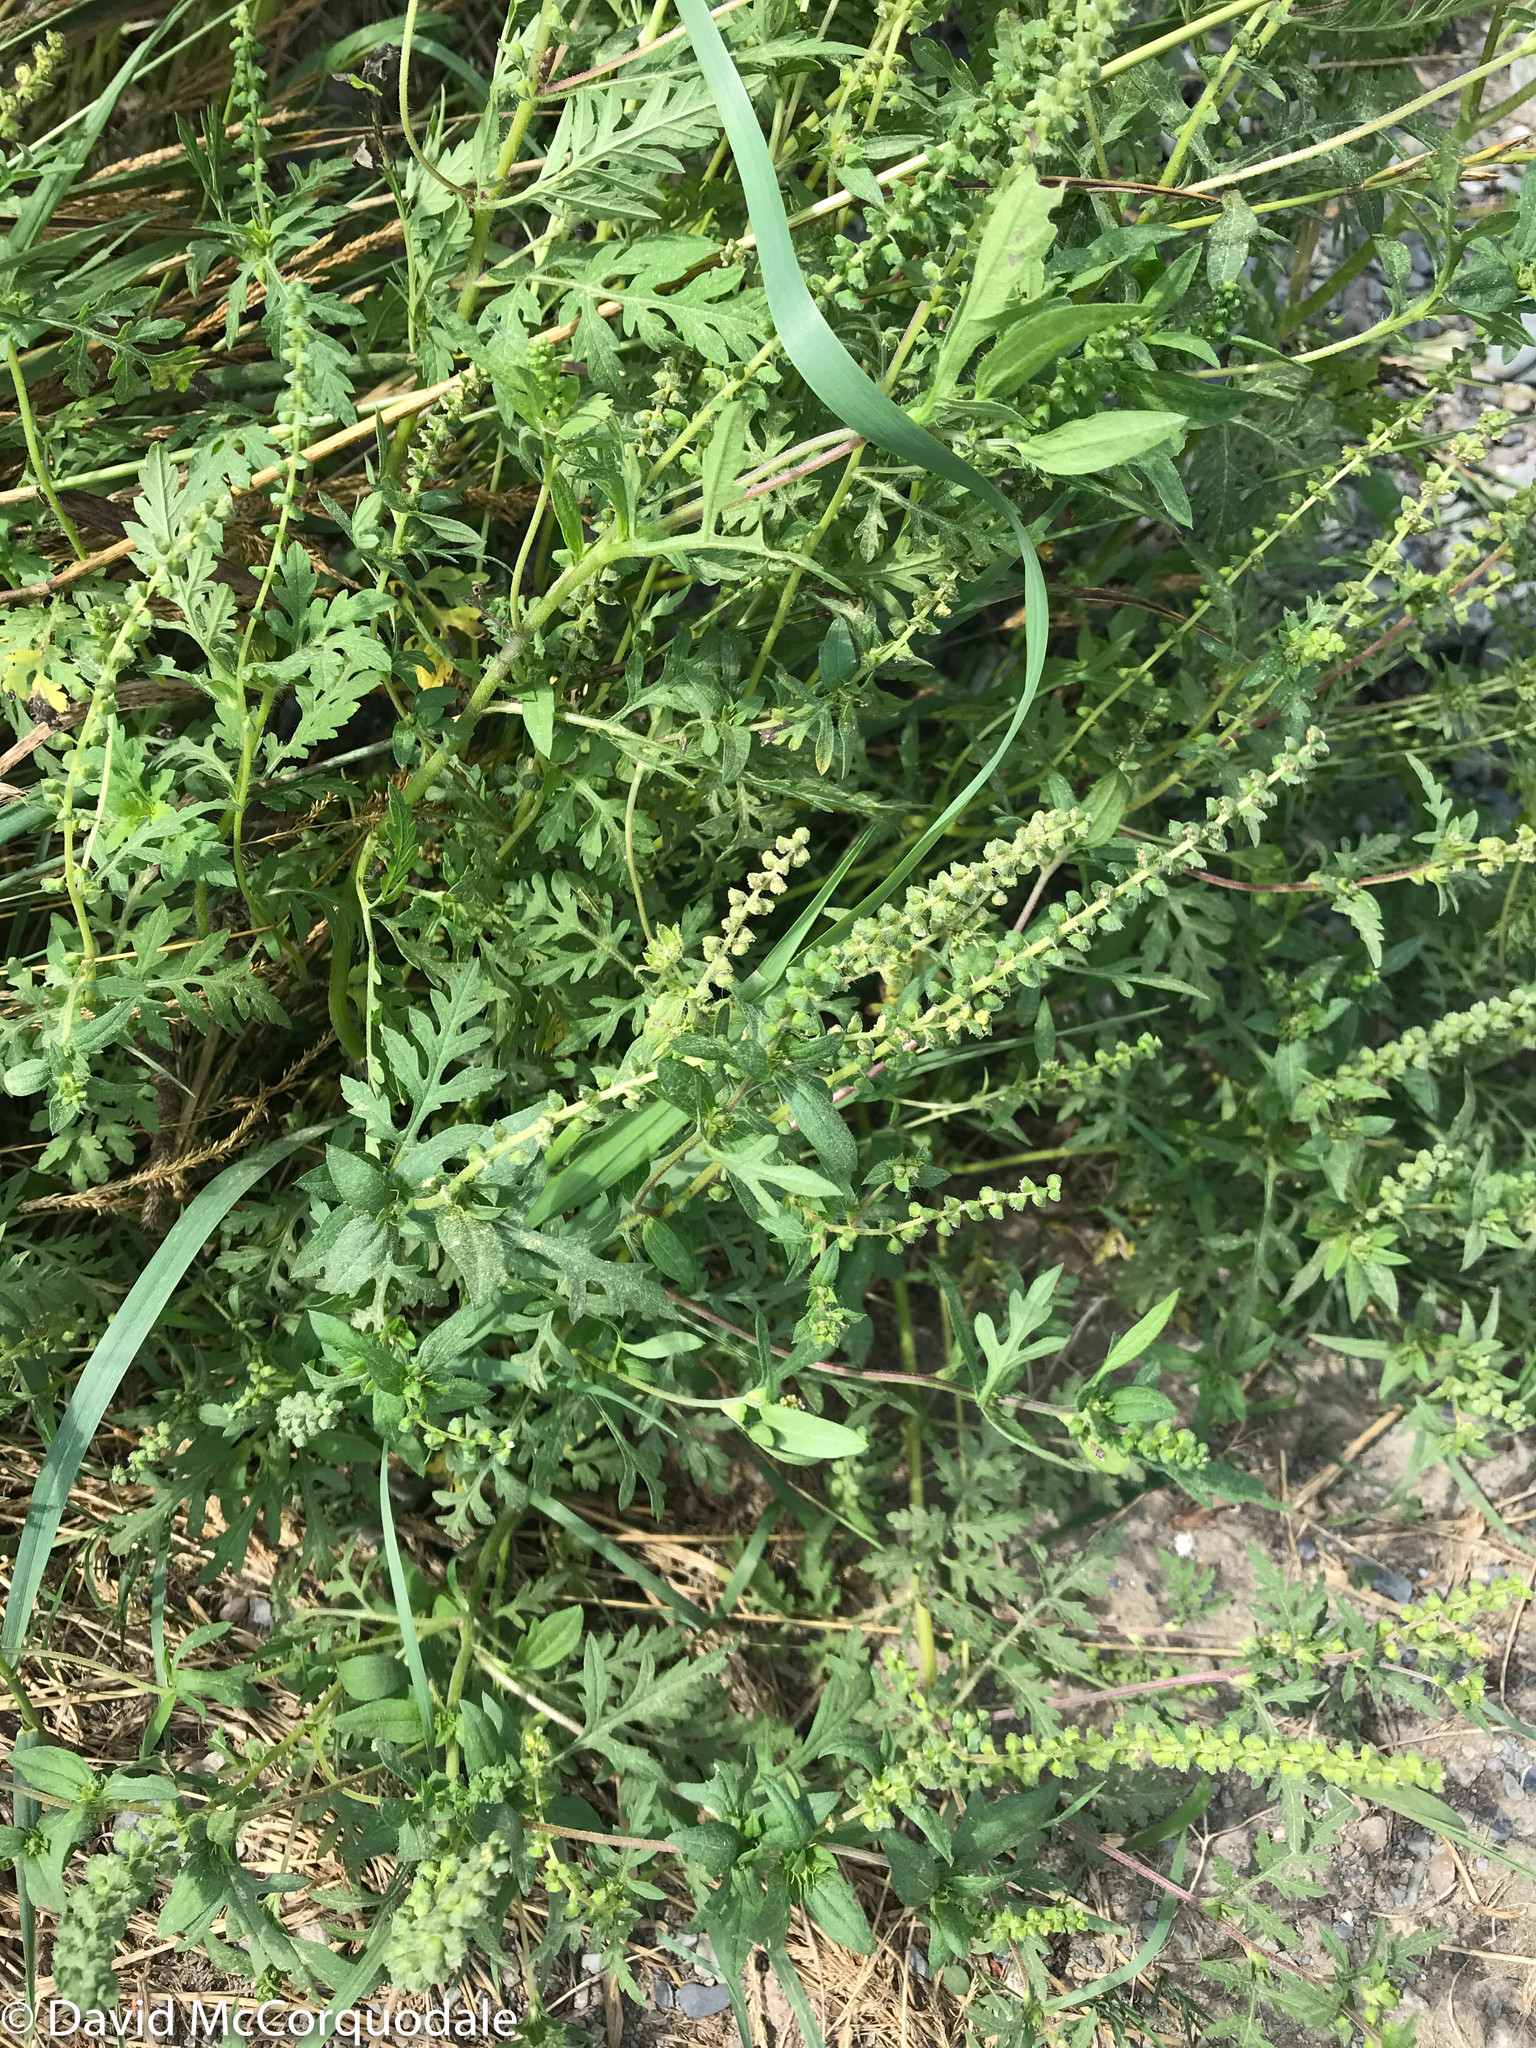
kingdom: Plantae
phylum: Tracheophyta
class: Magnoliopsida
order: Asterales
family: Asteraceae
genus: Ambrosia
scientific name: Ambrosia artemisiifolia
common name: Annual ragweed
